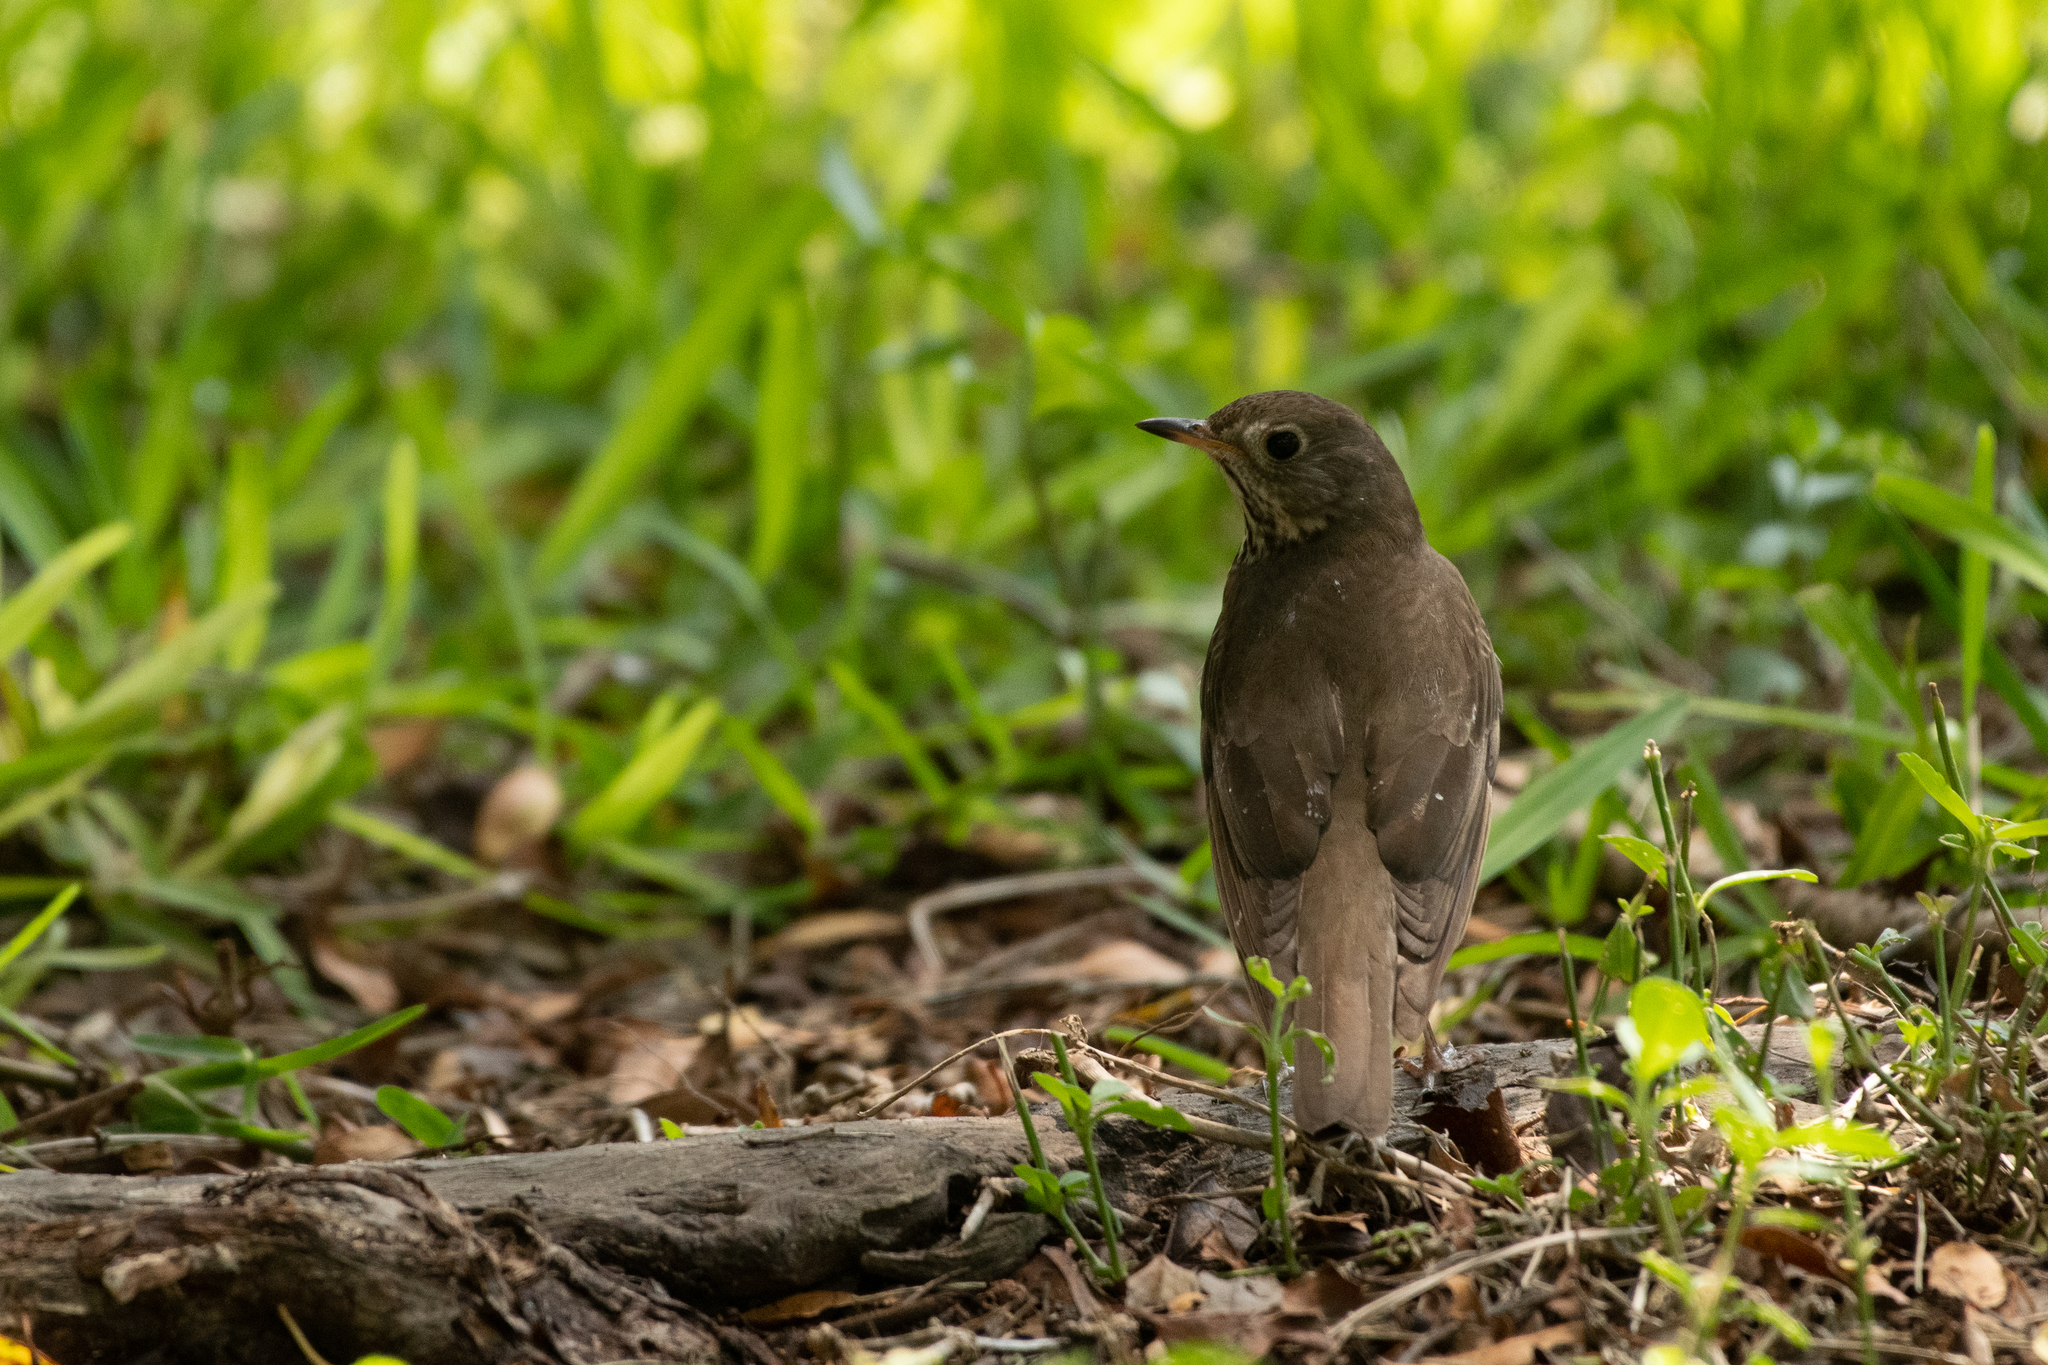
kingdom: Animalia
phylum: Chordata
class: Aves
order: Passeriformes
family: Turdidae
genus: Catharus
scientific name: Catharus minimus
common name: Grey-cheeked thrush
